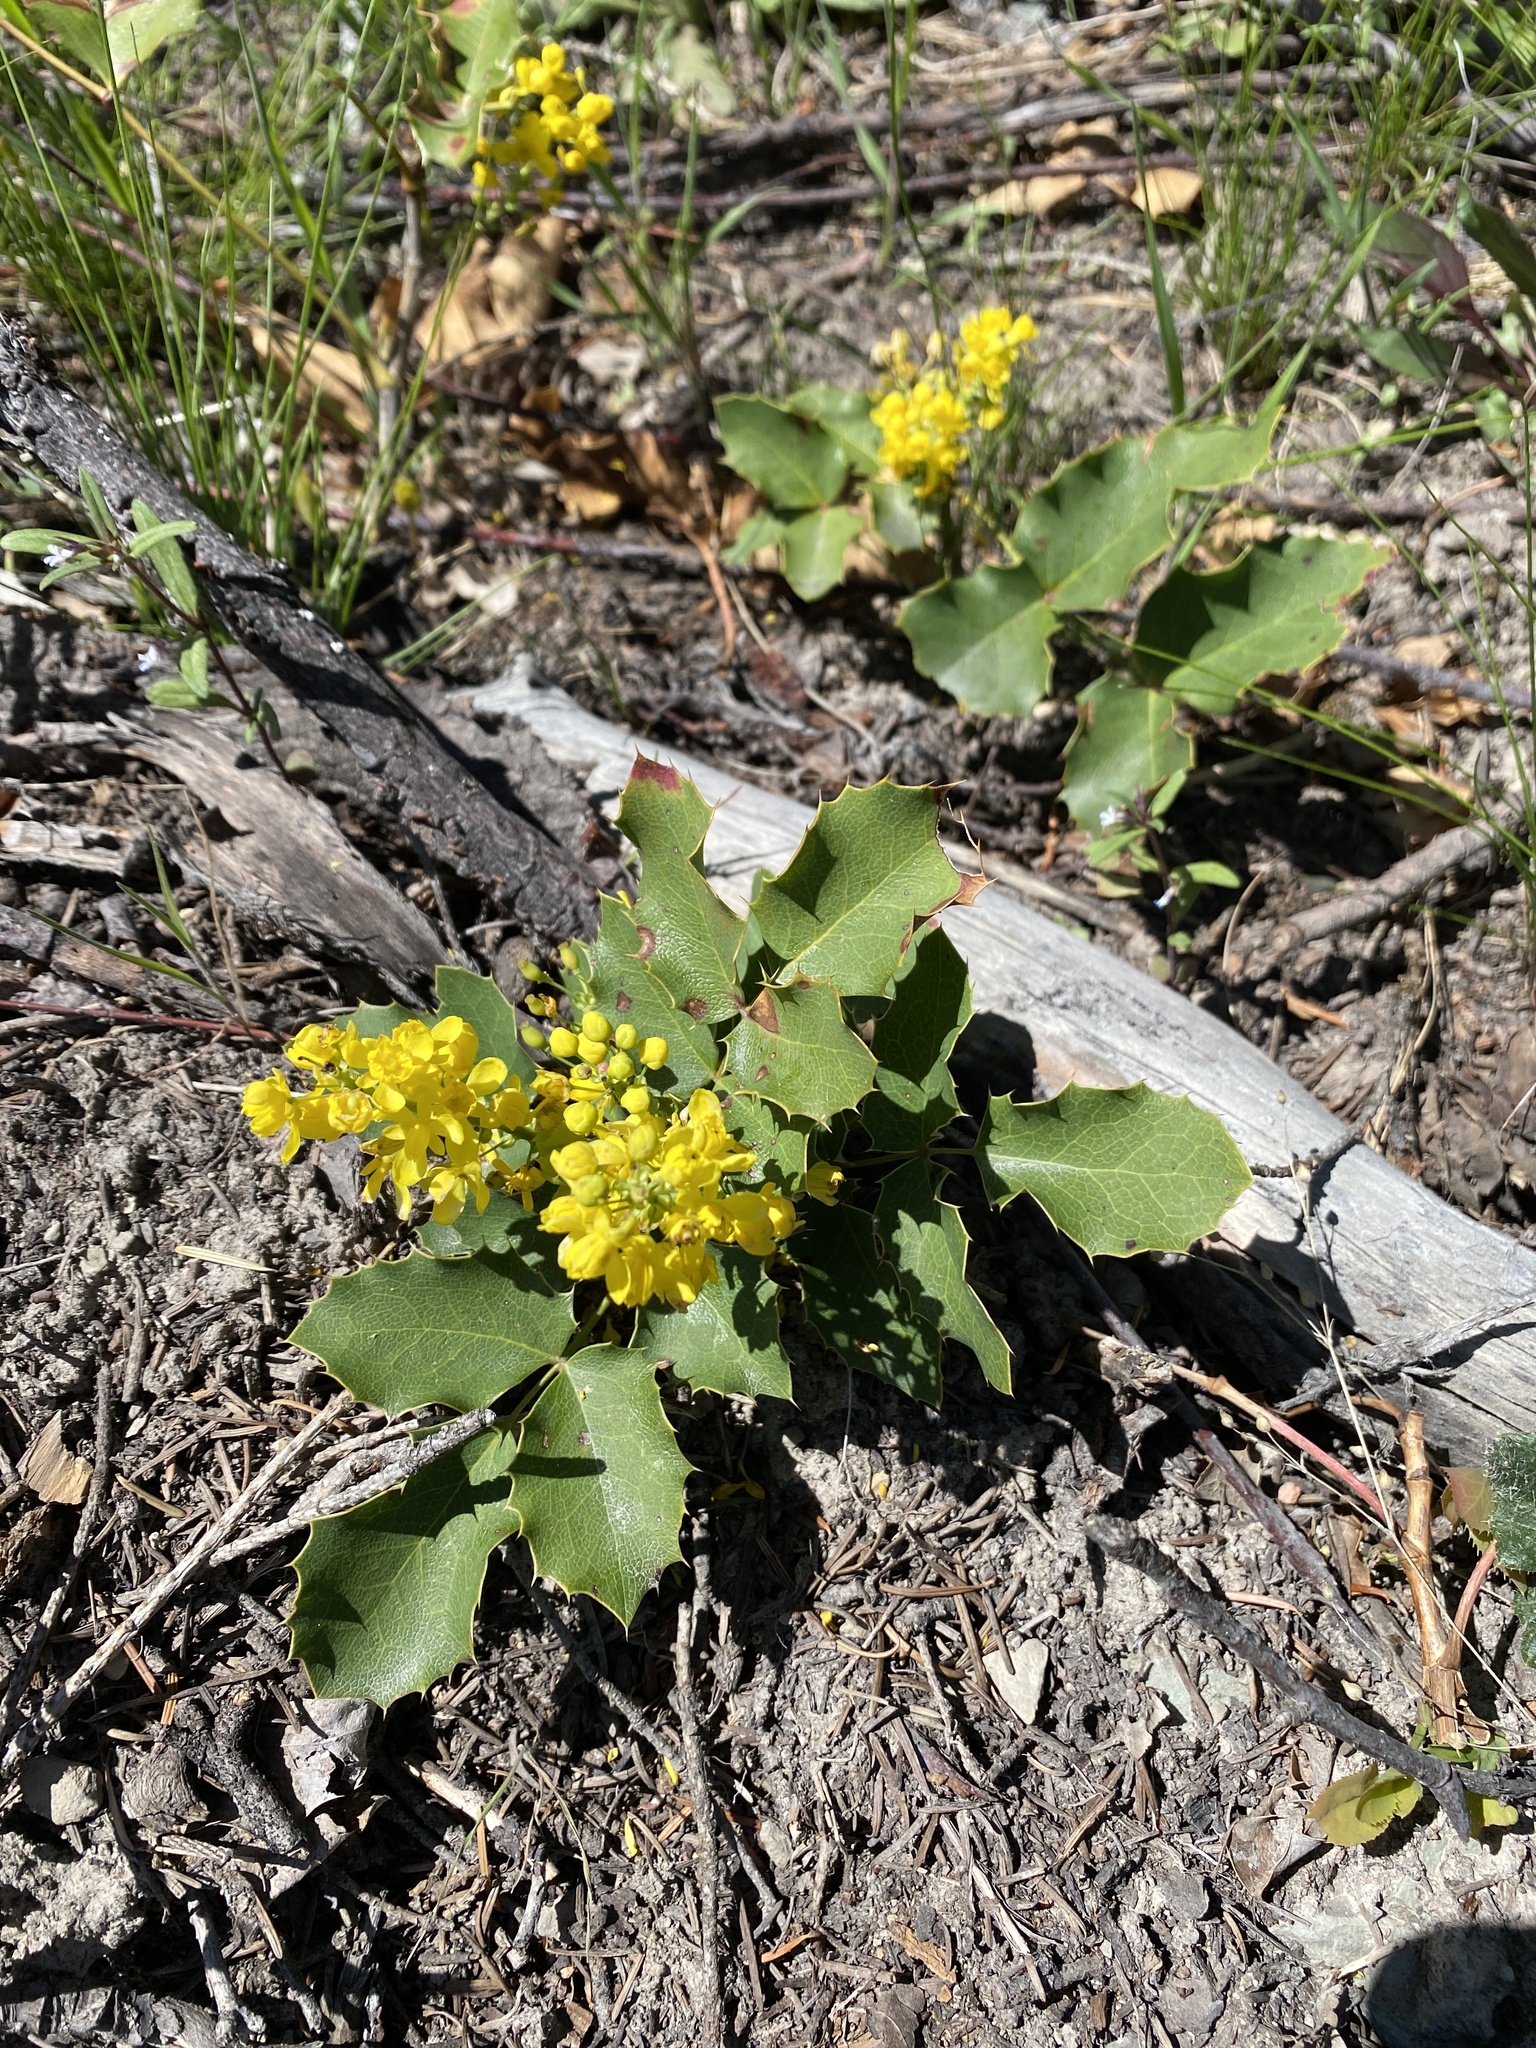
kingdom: Plantae
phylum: Tracheophyta
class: Magnoliopsida
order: Ranunculales
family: Berberidaceae
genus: Mahonia
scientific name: Mahonia repens
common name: Creeping oregon-grape
